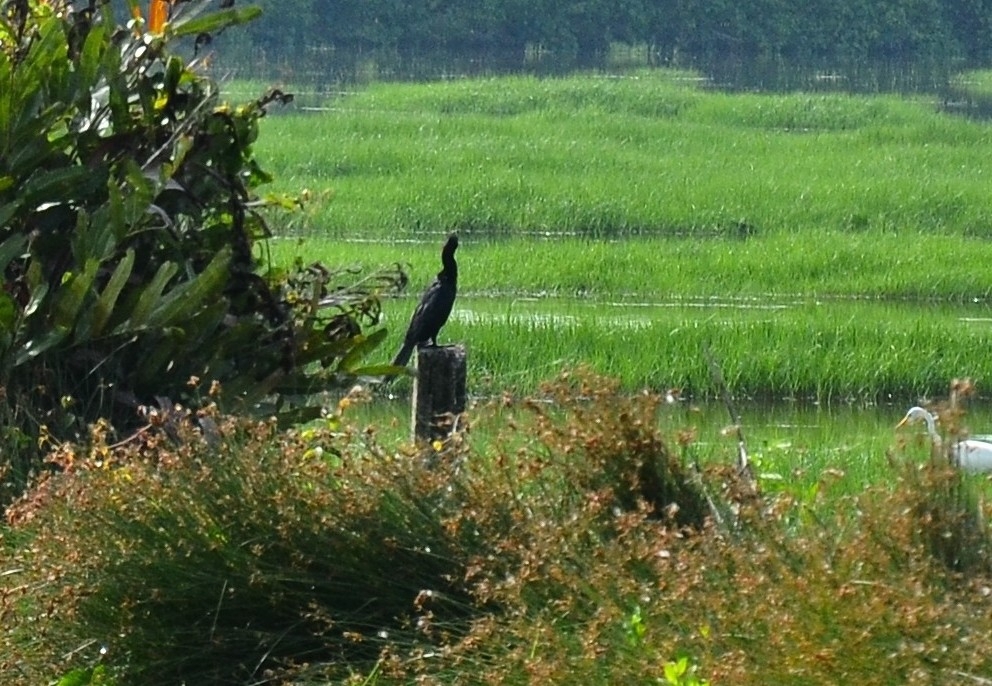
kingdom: Animalia
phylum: Chordata
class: Aves
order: Suliformes
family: Phalacrocoracidae
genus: Microcarbo
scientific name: Microcarbo niger
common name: Little cormorant
